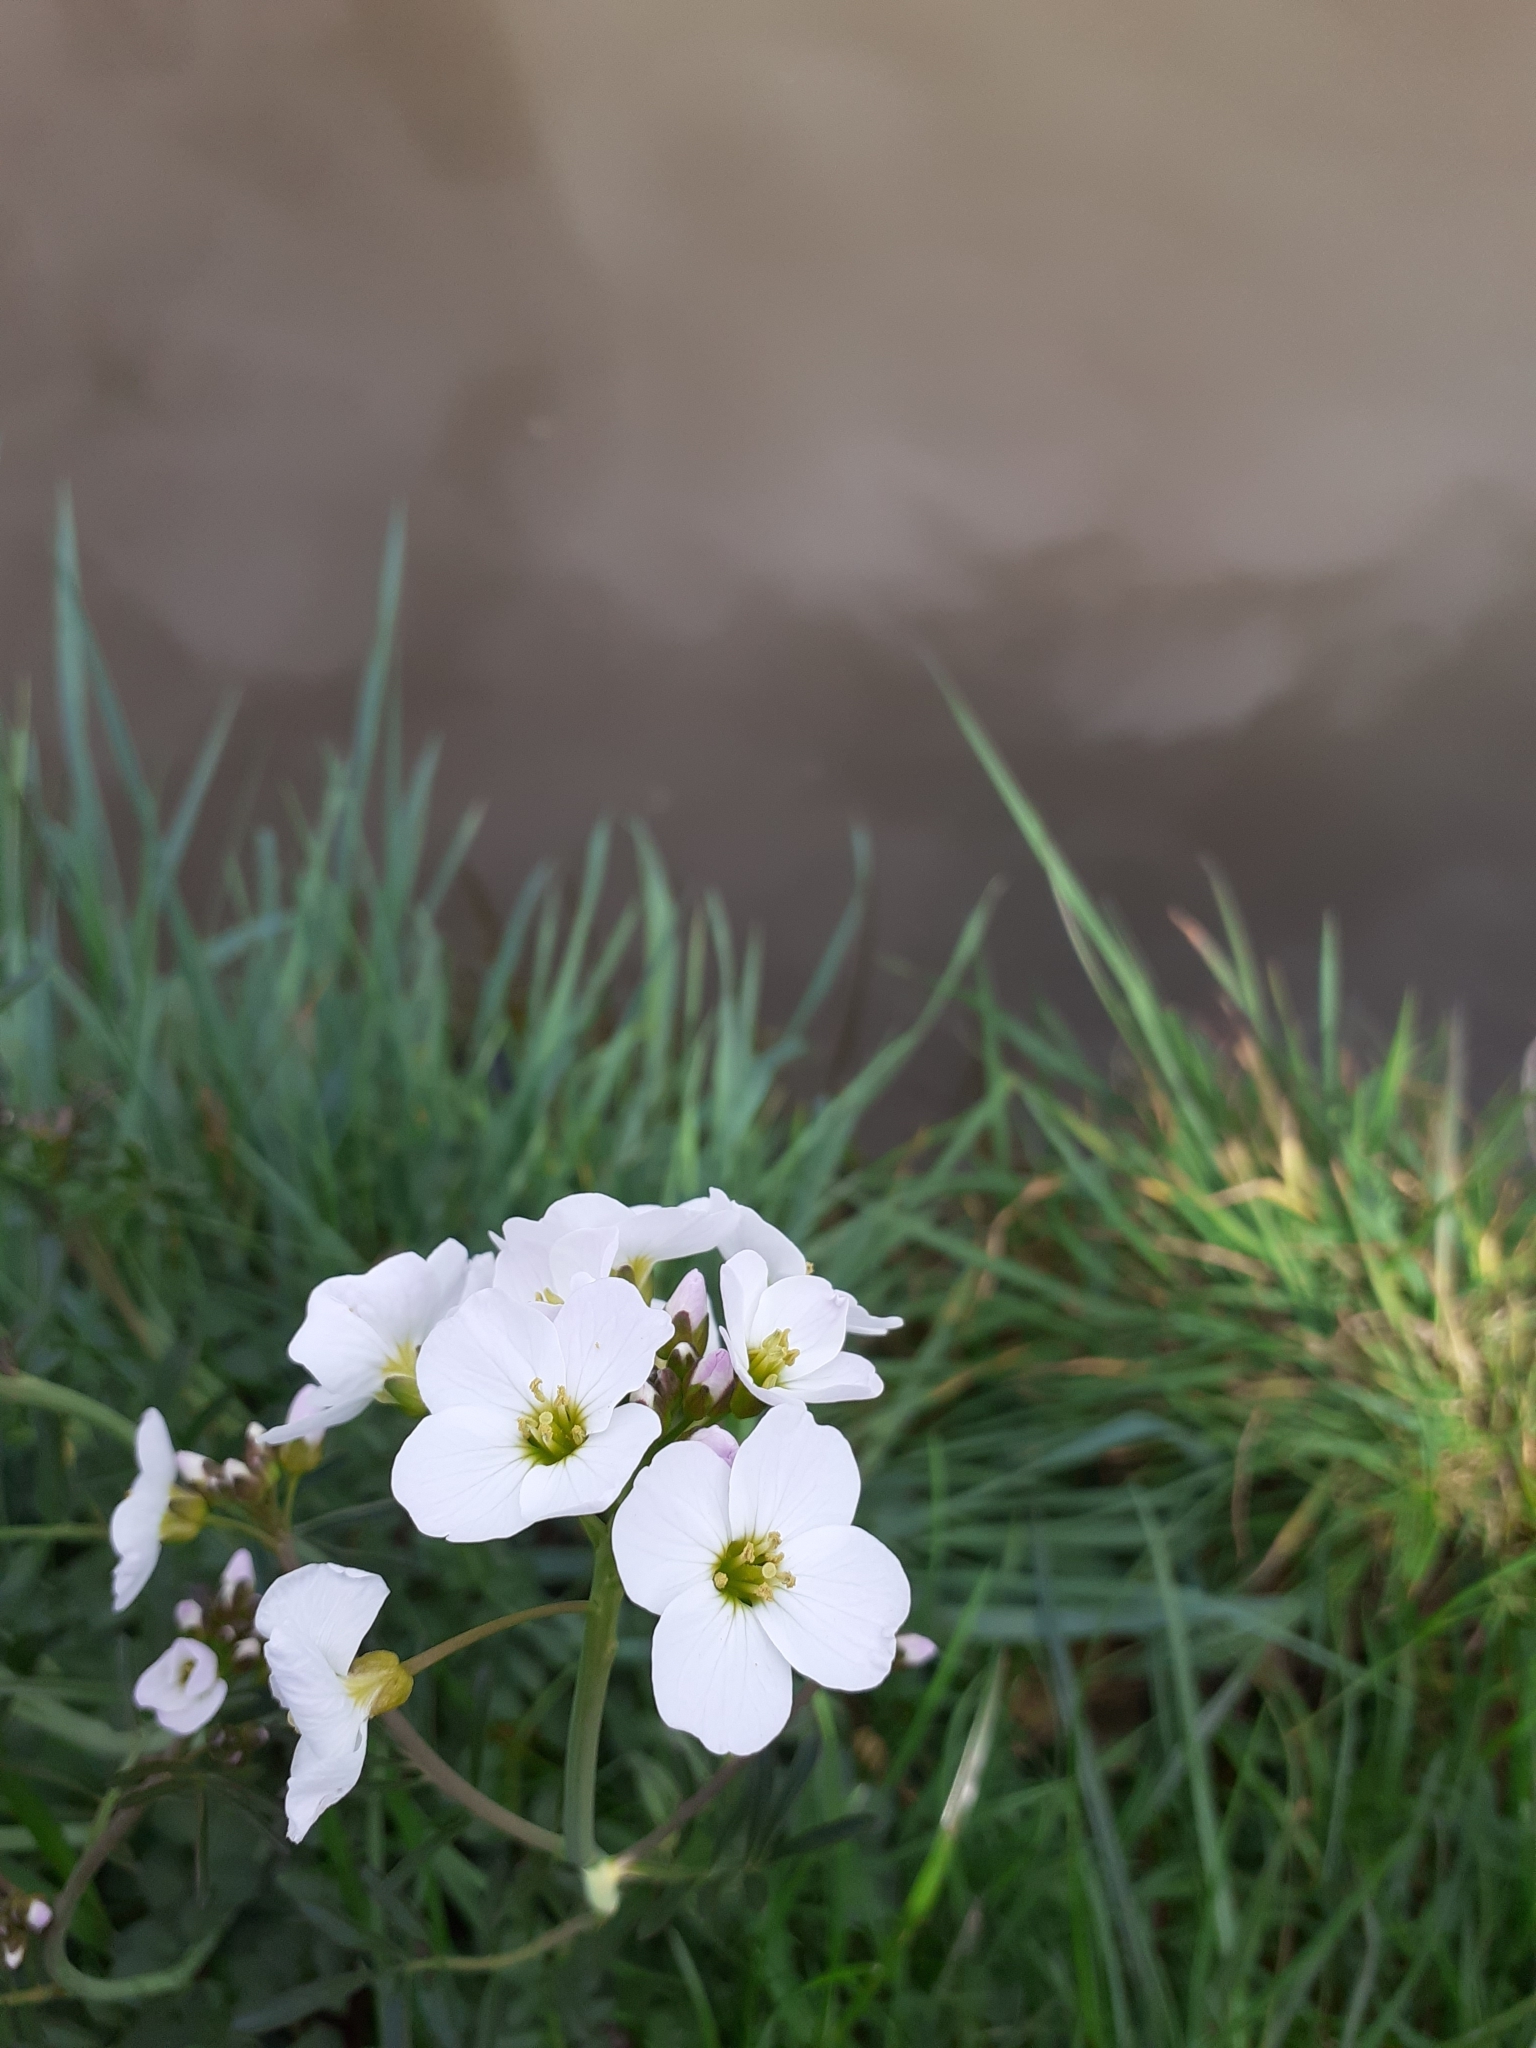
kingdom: Plantae
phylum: Tracheophyta
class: Magnoliopsida
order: Brassicales
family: Brassicaceae
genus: Cardamine
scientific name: Cardamine pratensis
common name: Cuckoo flower
